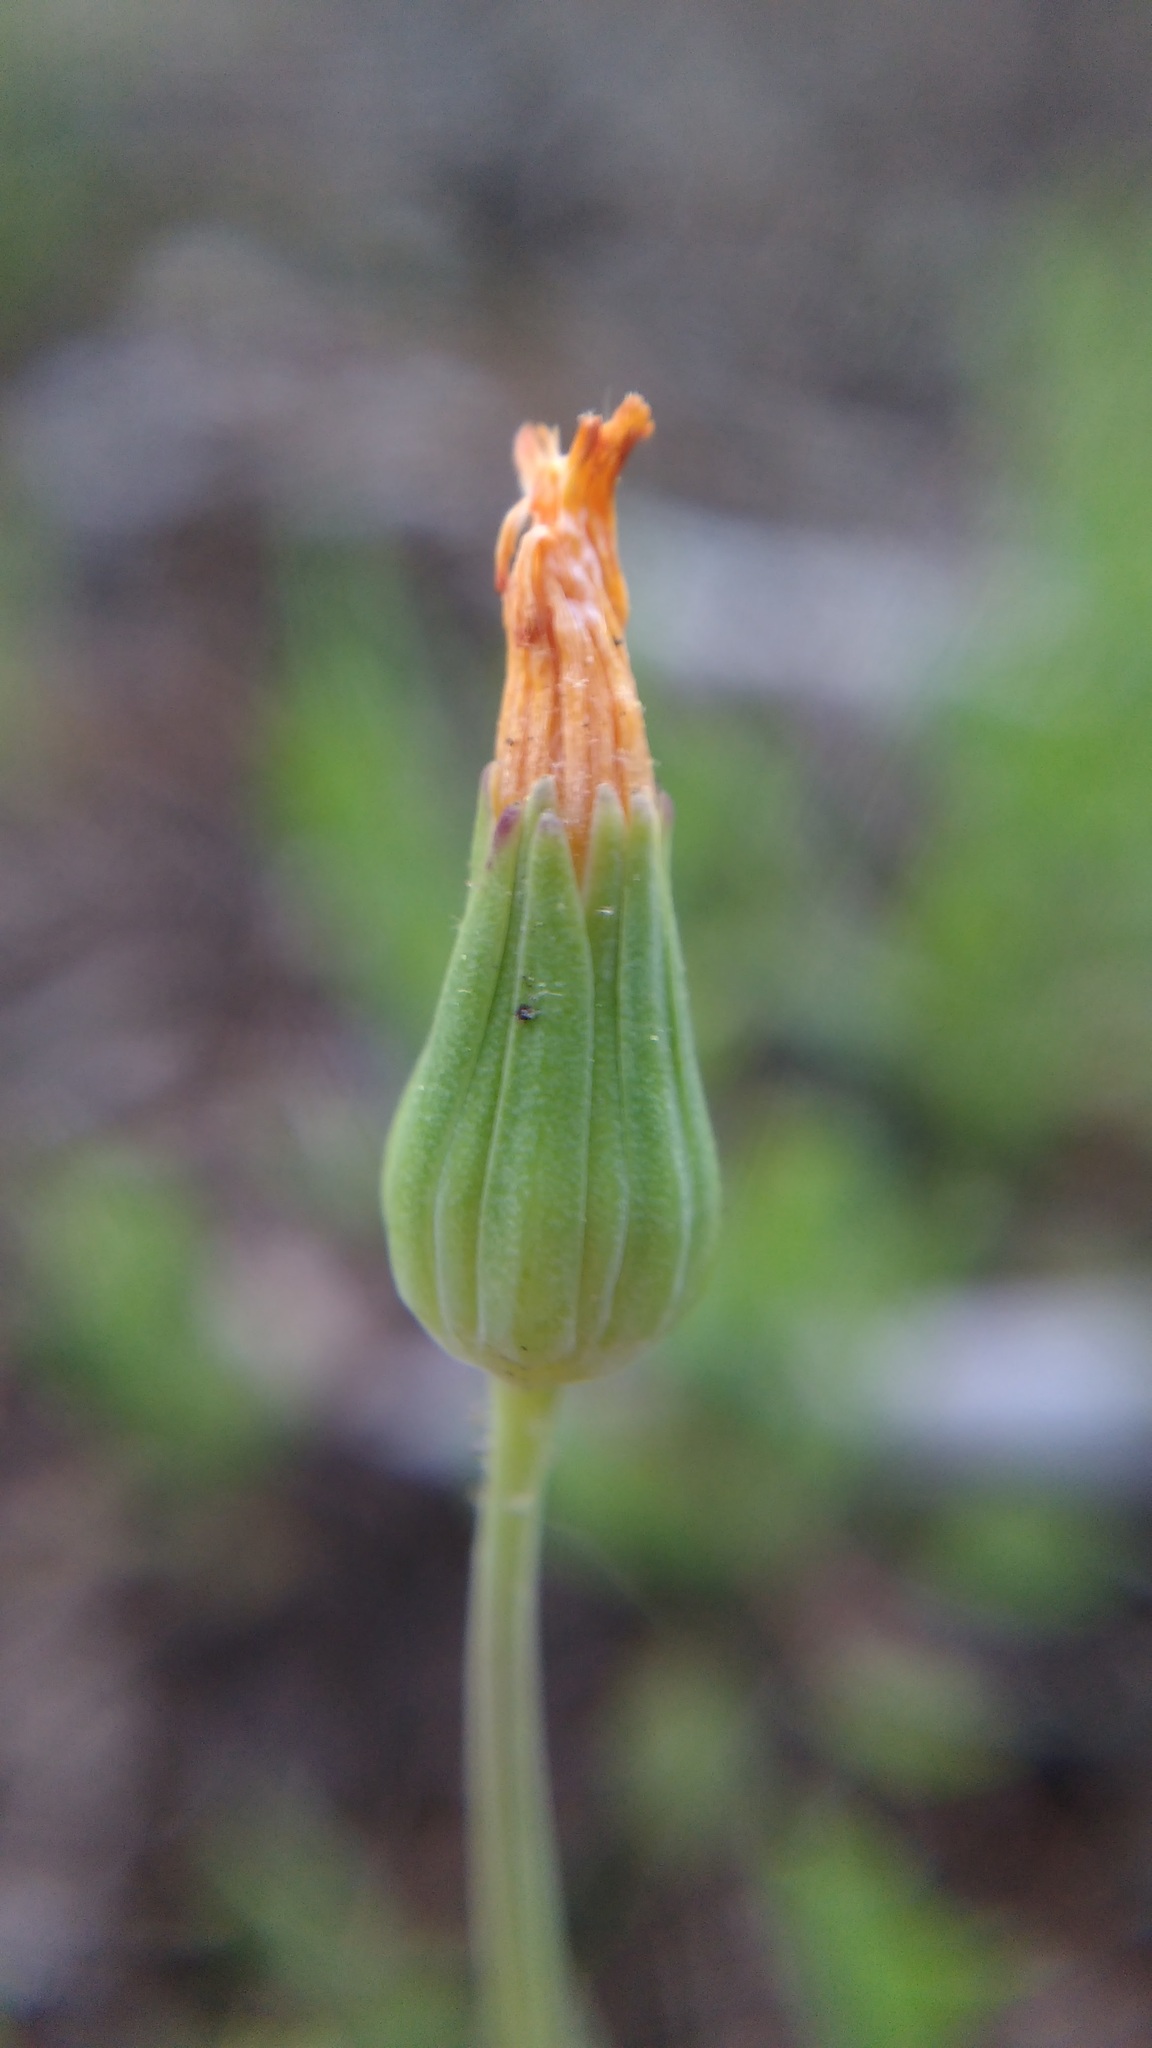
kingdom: Plantae
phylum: Tracheophyta
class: Magnoliopsida
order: Asterales
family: Asteraceae
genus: Krigia
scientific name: Krigia virginica
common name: Virginia dwarf-dandelion
